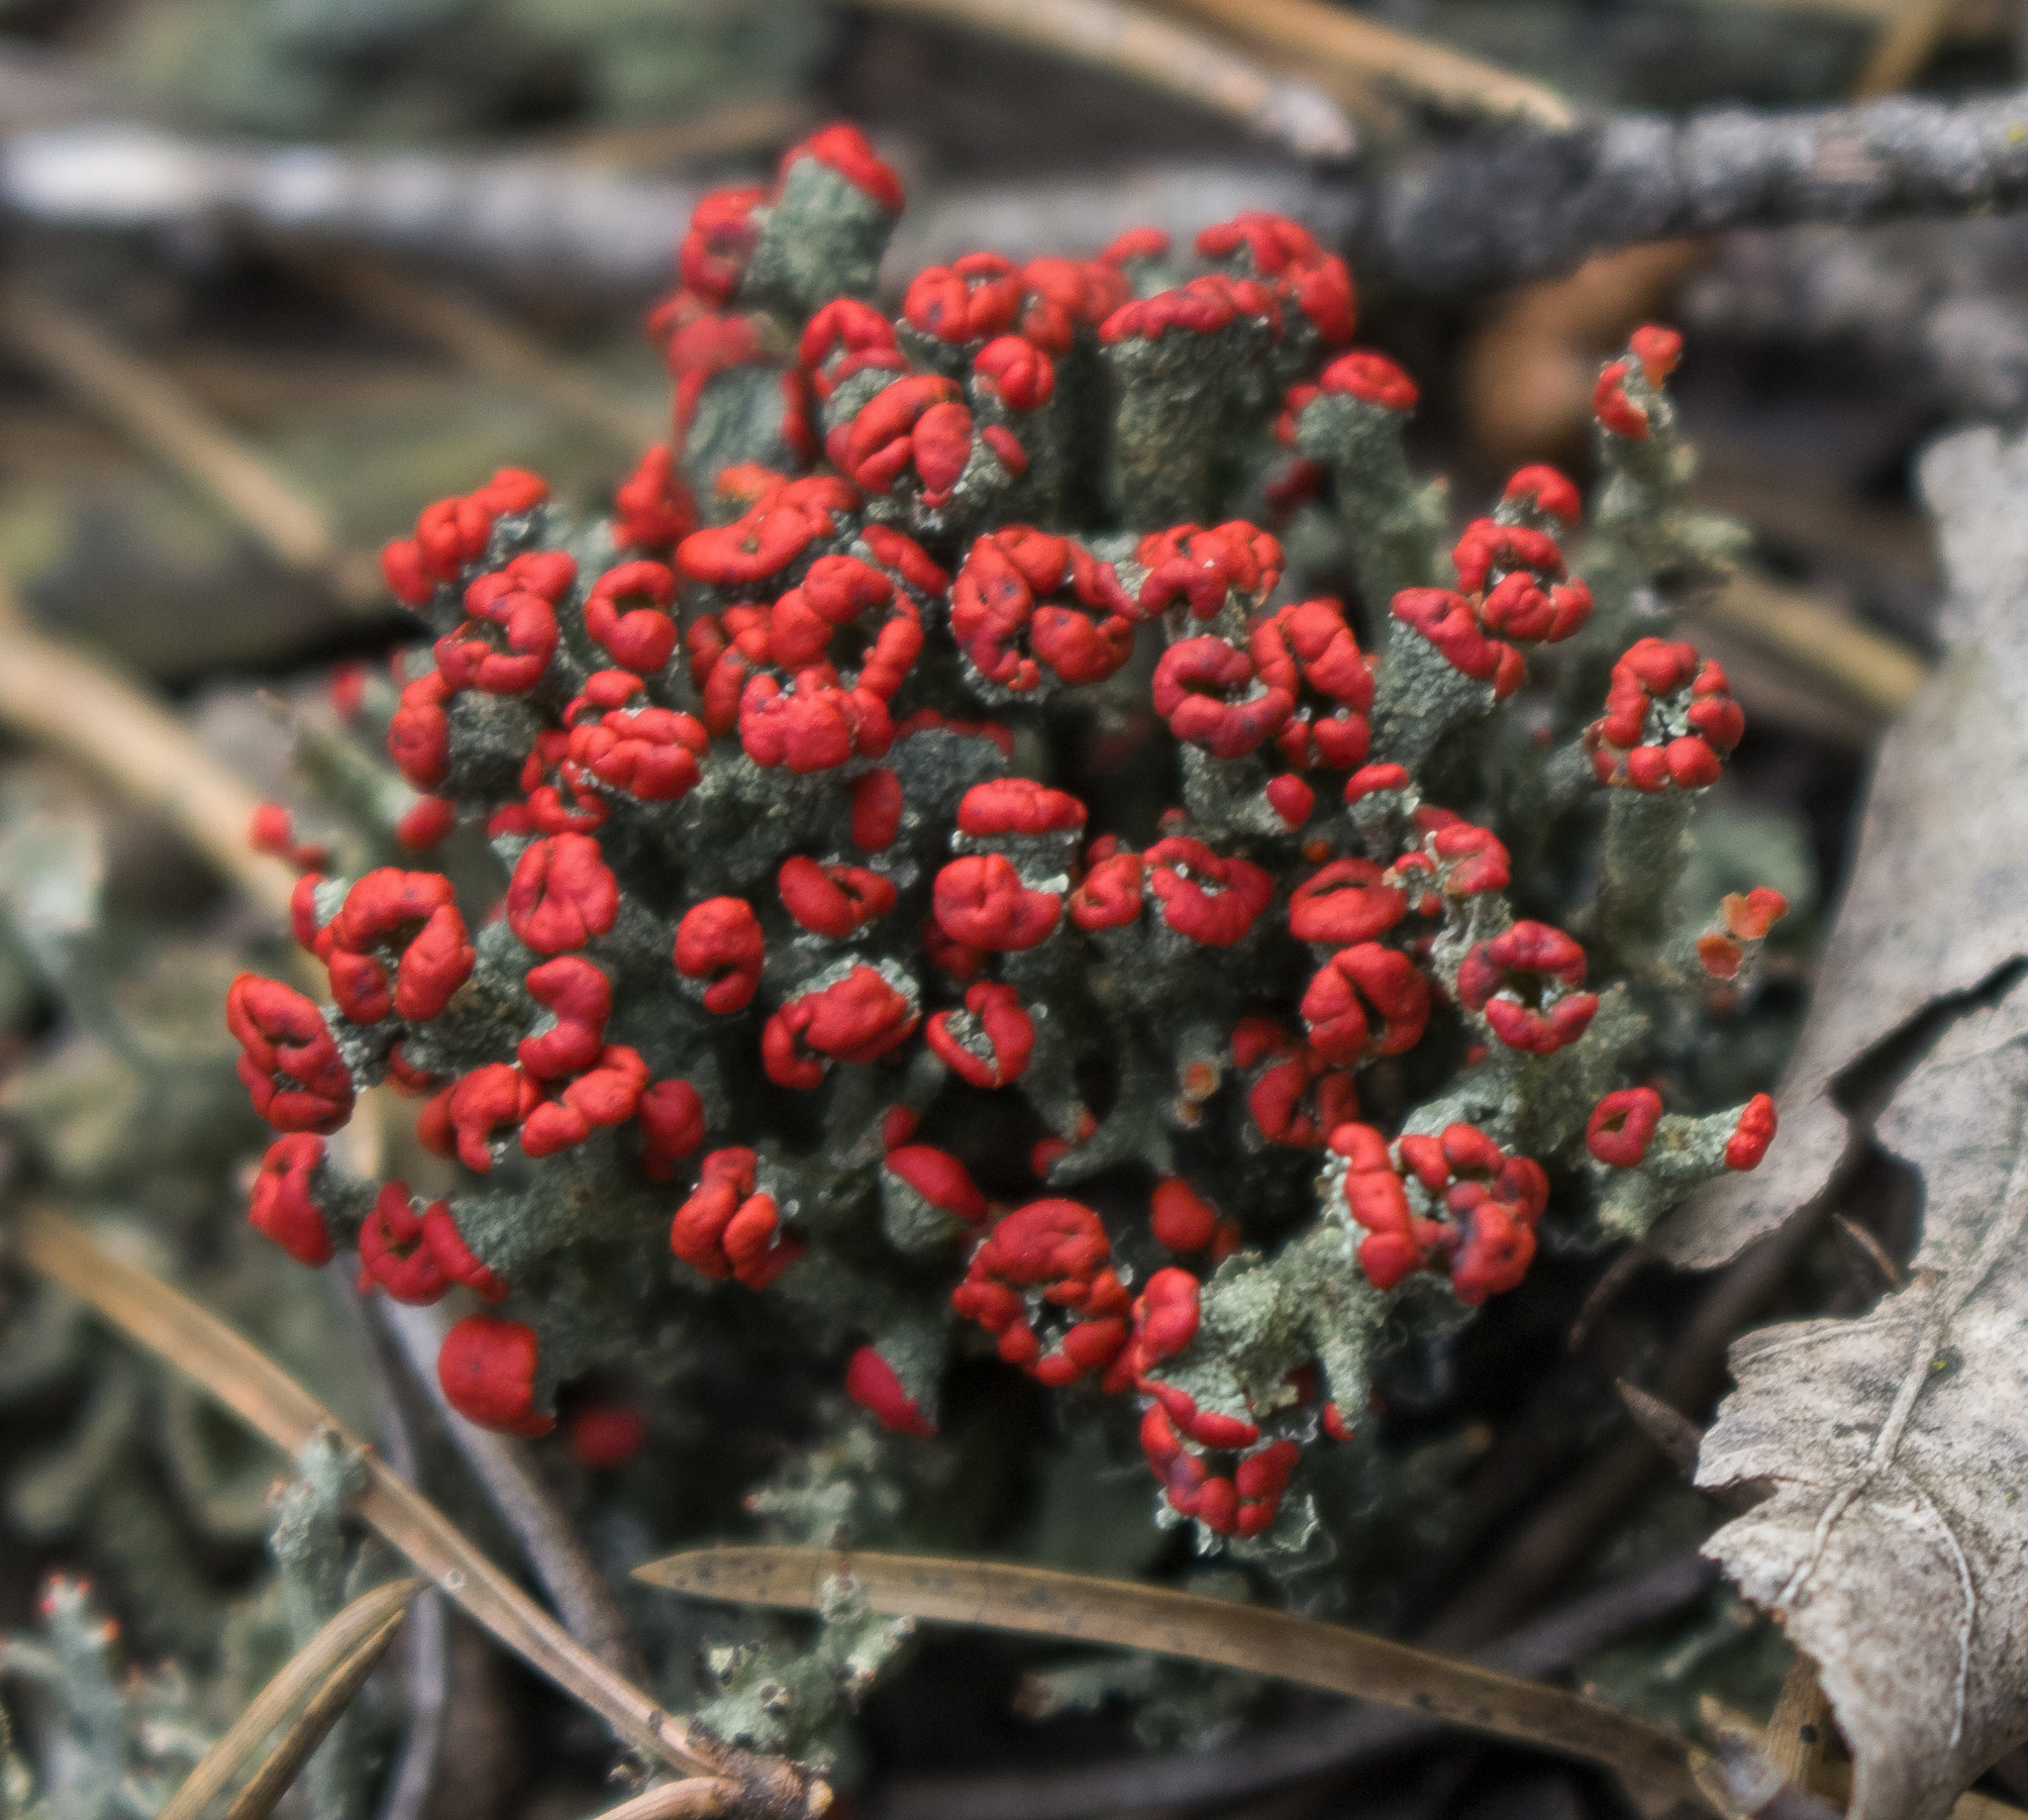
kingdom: Fungi
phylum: Ascomycota
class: Lecanoromycetes
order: Lecanorales
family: Cladoniaceae
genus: Cladonia
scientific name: Cladonia cristatella
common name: British soldier lichen
